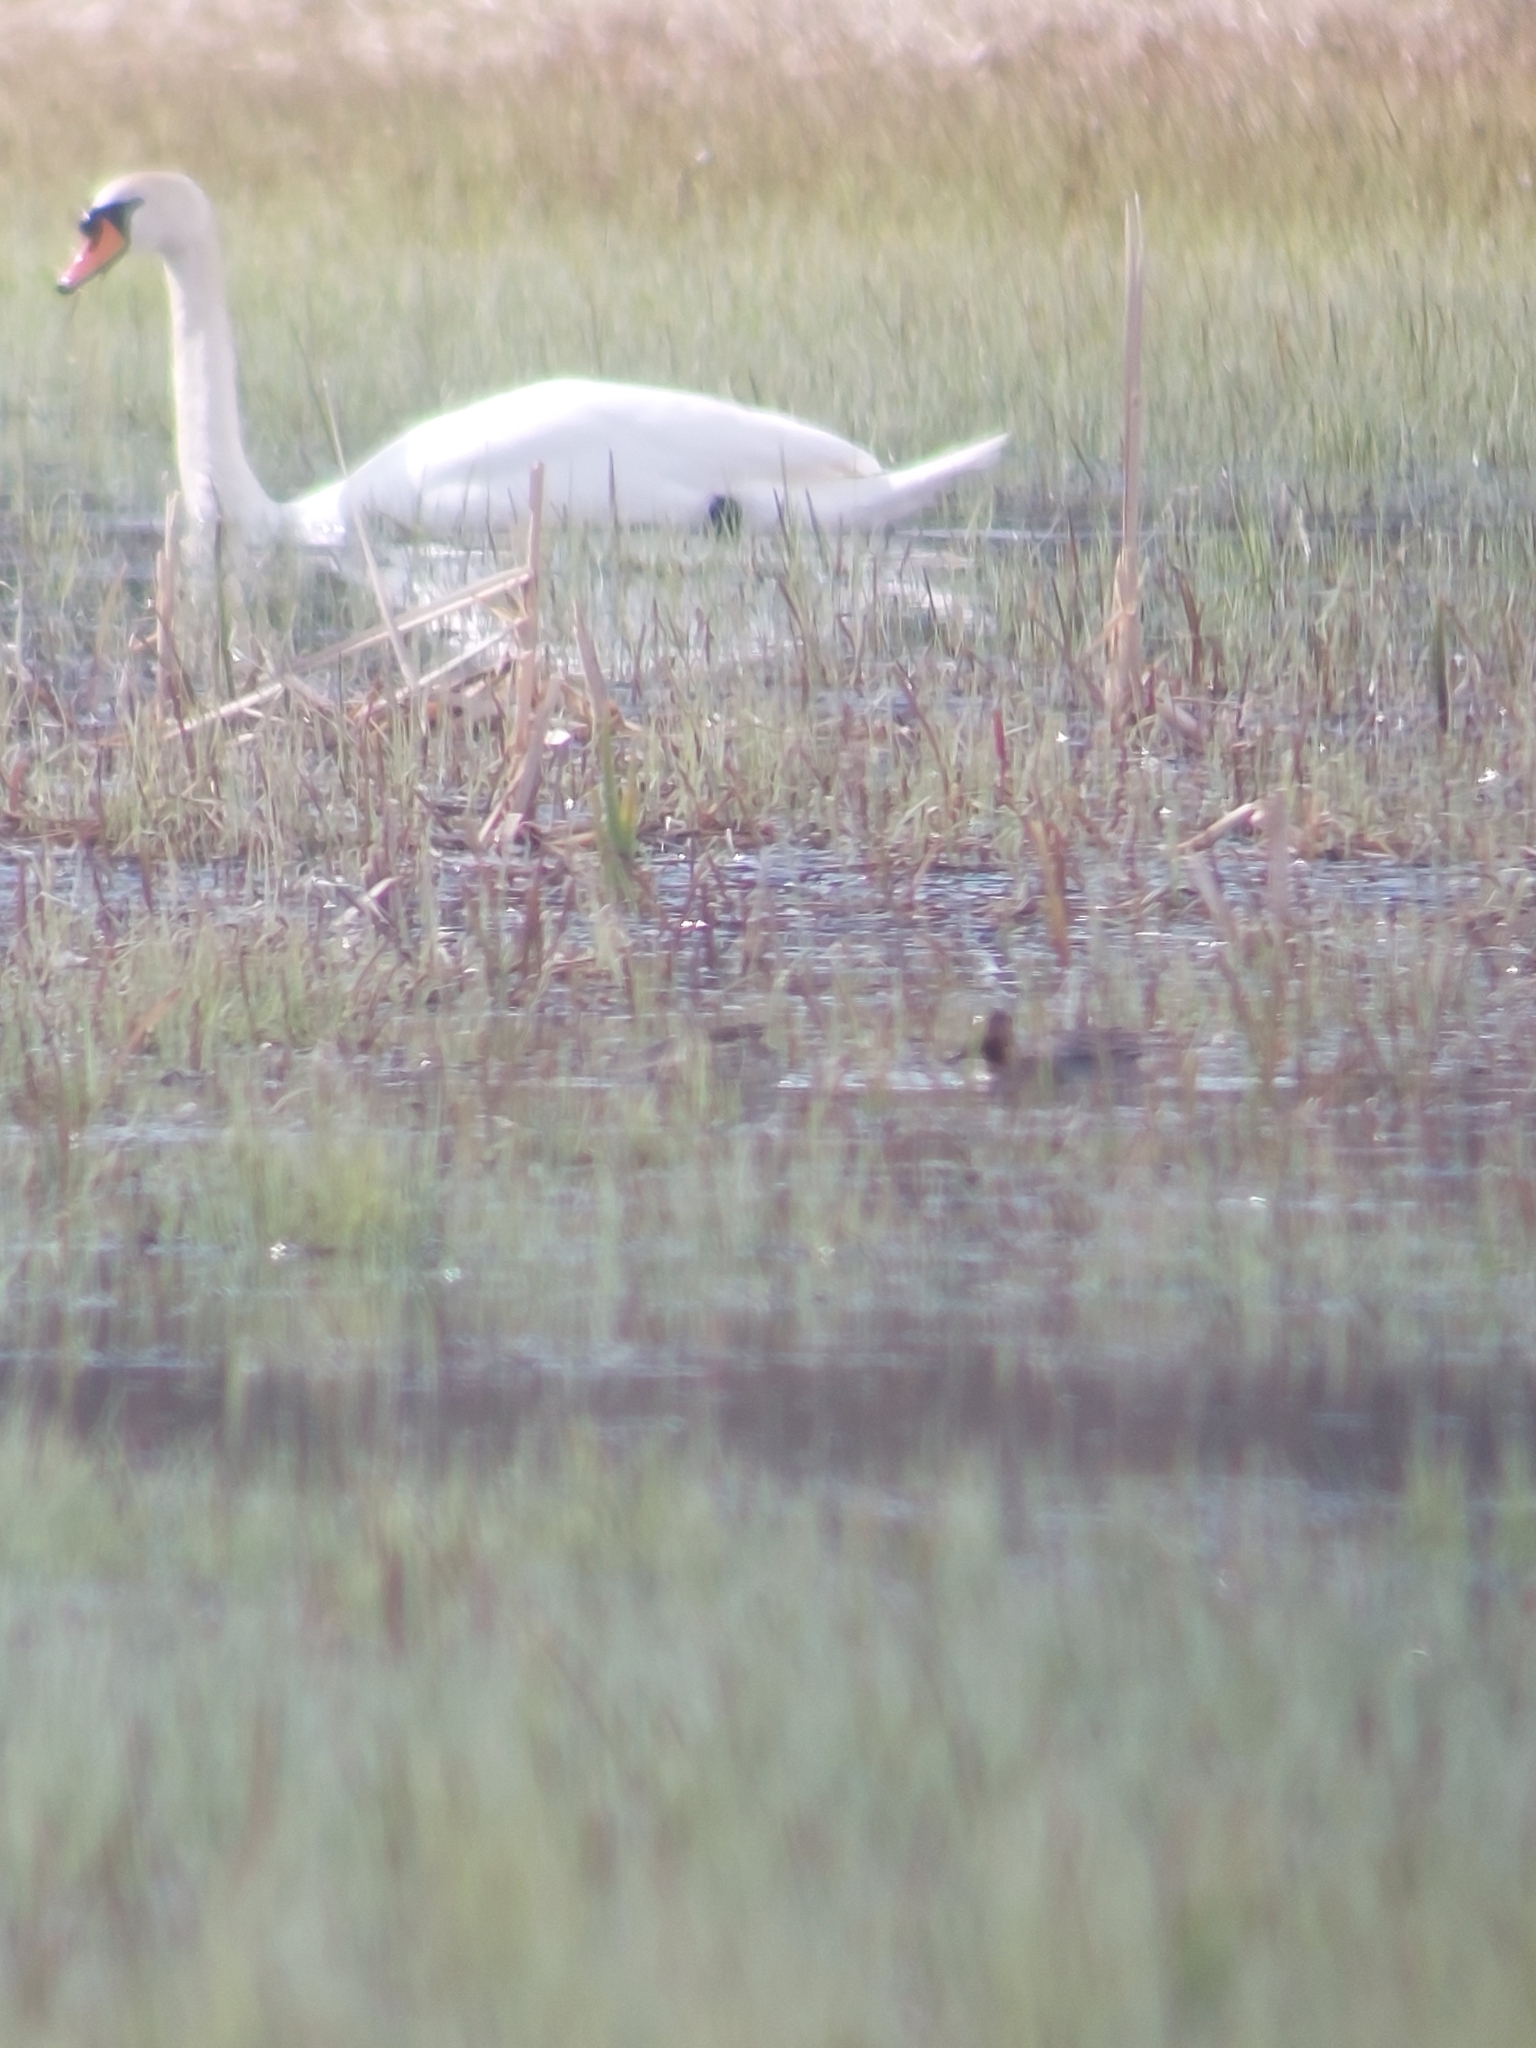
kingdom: Animalia
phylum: Chordata
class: Aves
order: Anseriformes
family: Anatidae
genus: Cygnus
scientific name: Cygnus olor
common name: Mute swan
